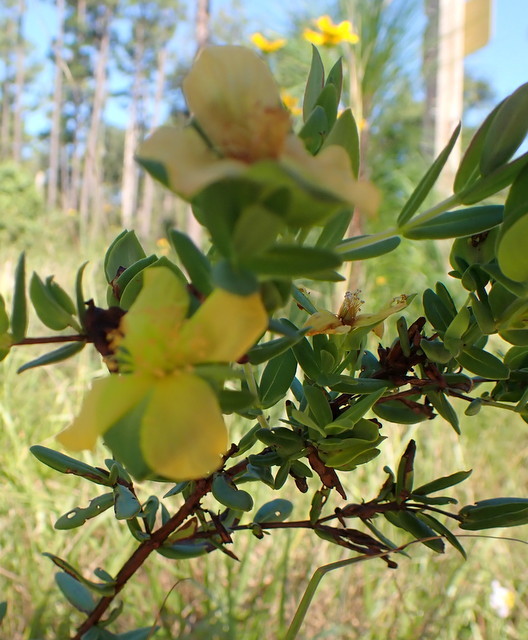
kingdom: Plantae
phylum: Tracheophyta
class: Magnoliopsida
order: Malpighiales
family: Hypericaceae
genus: Hypericum
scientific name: Hypericum crux-andreae
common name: St.-peter's-wort
